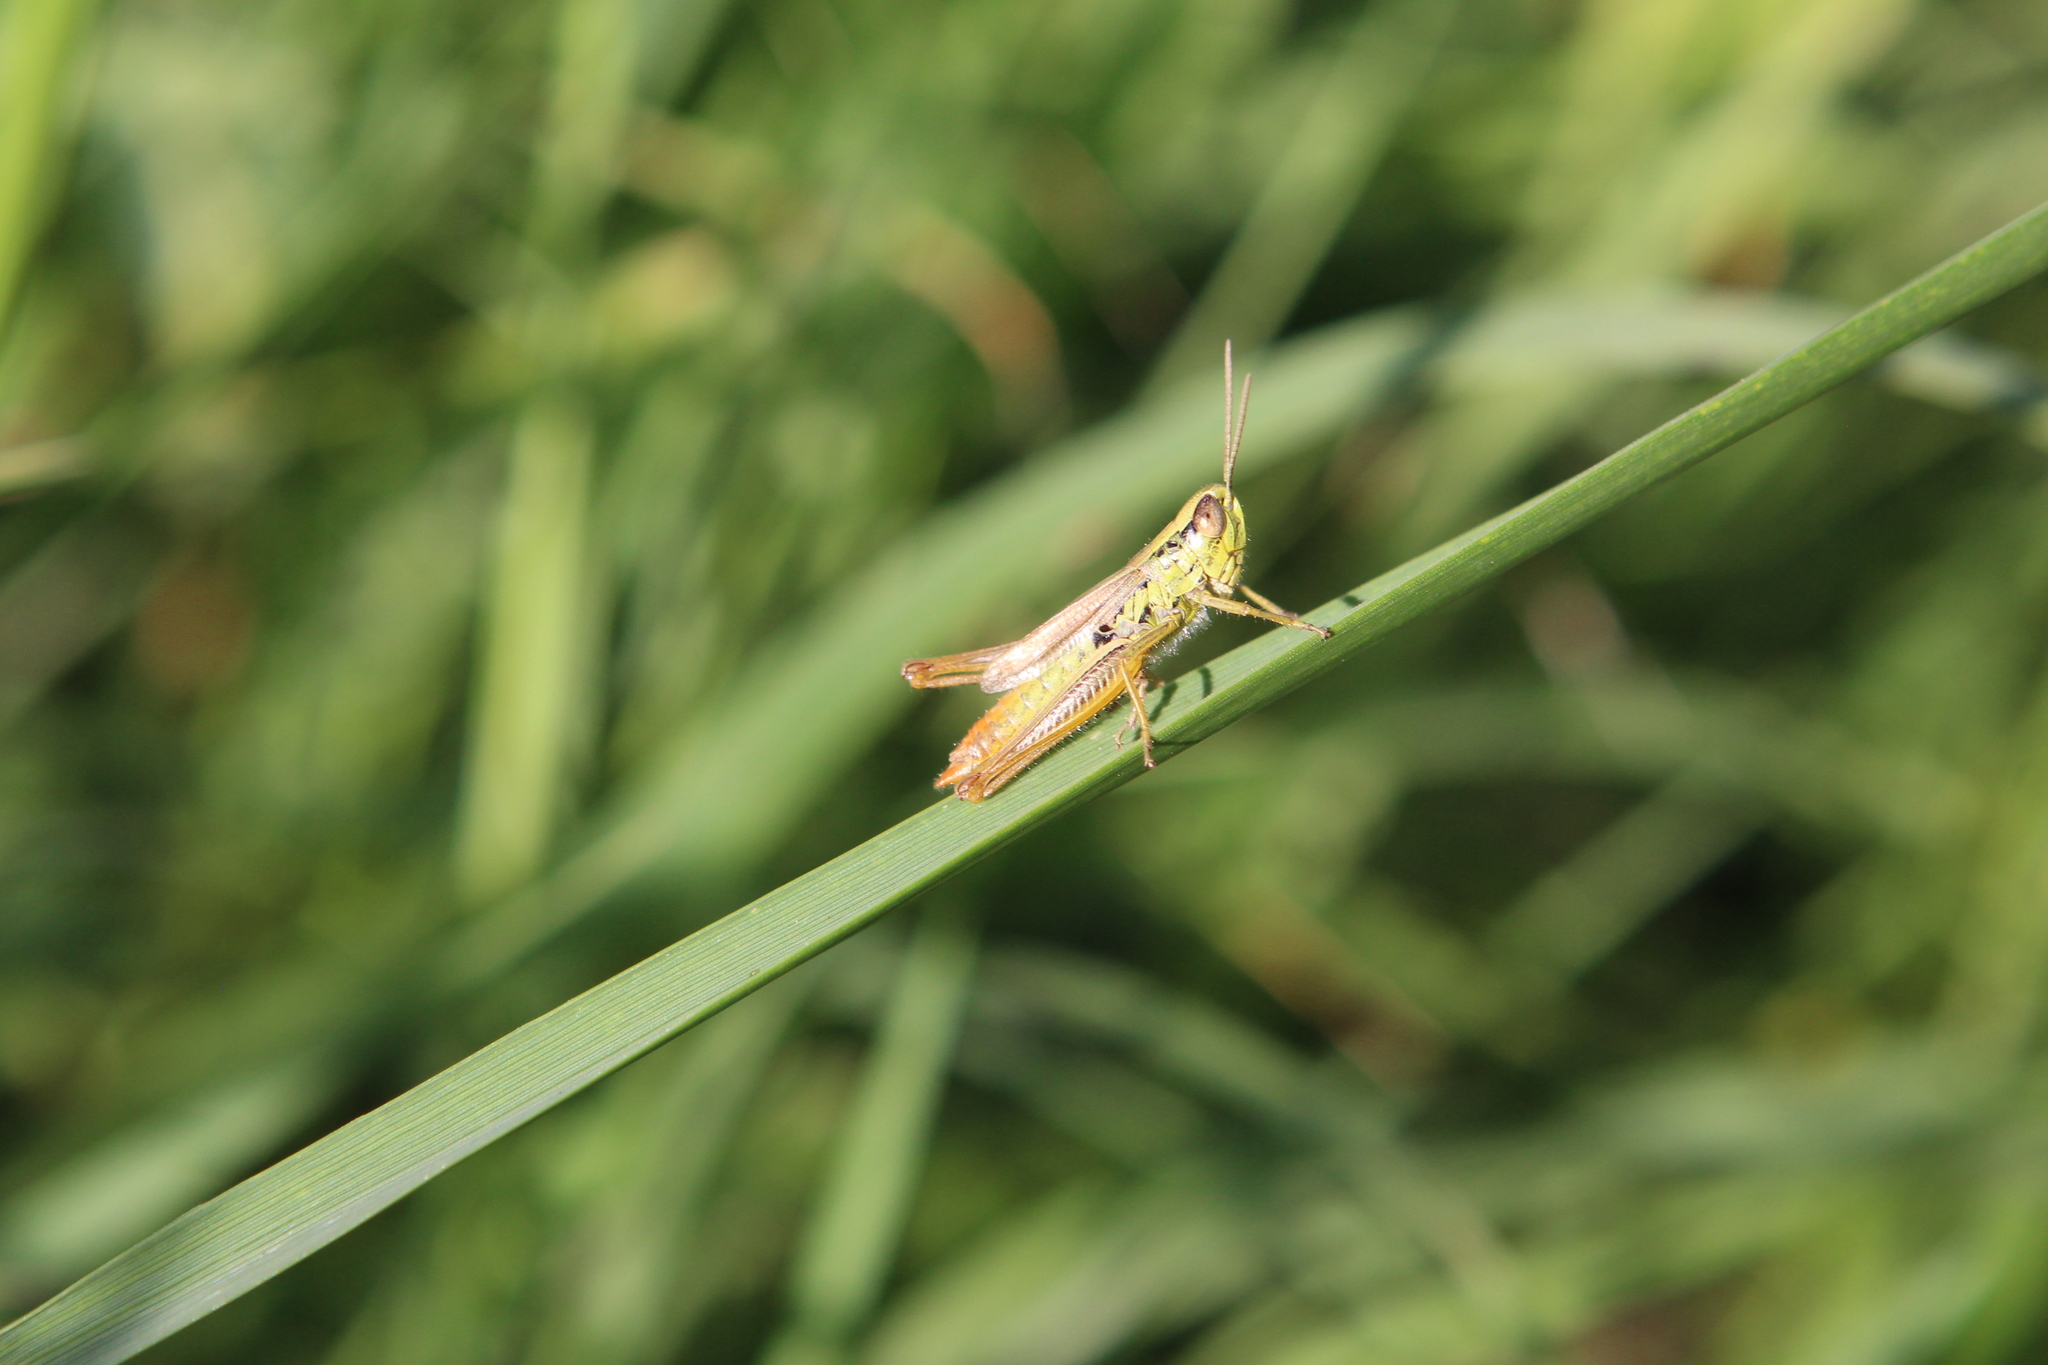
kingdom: Animalia
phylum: Arthropoda
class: Insecta
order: Orthoptera
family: Acrididae
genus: Euchorthippus
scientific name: Euchorthippus declivus
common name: Common straw grasshopper
